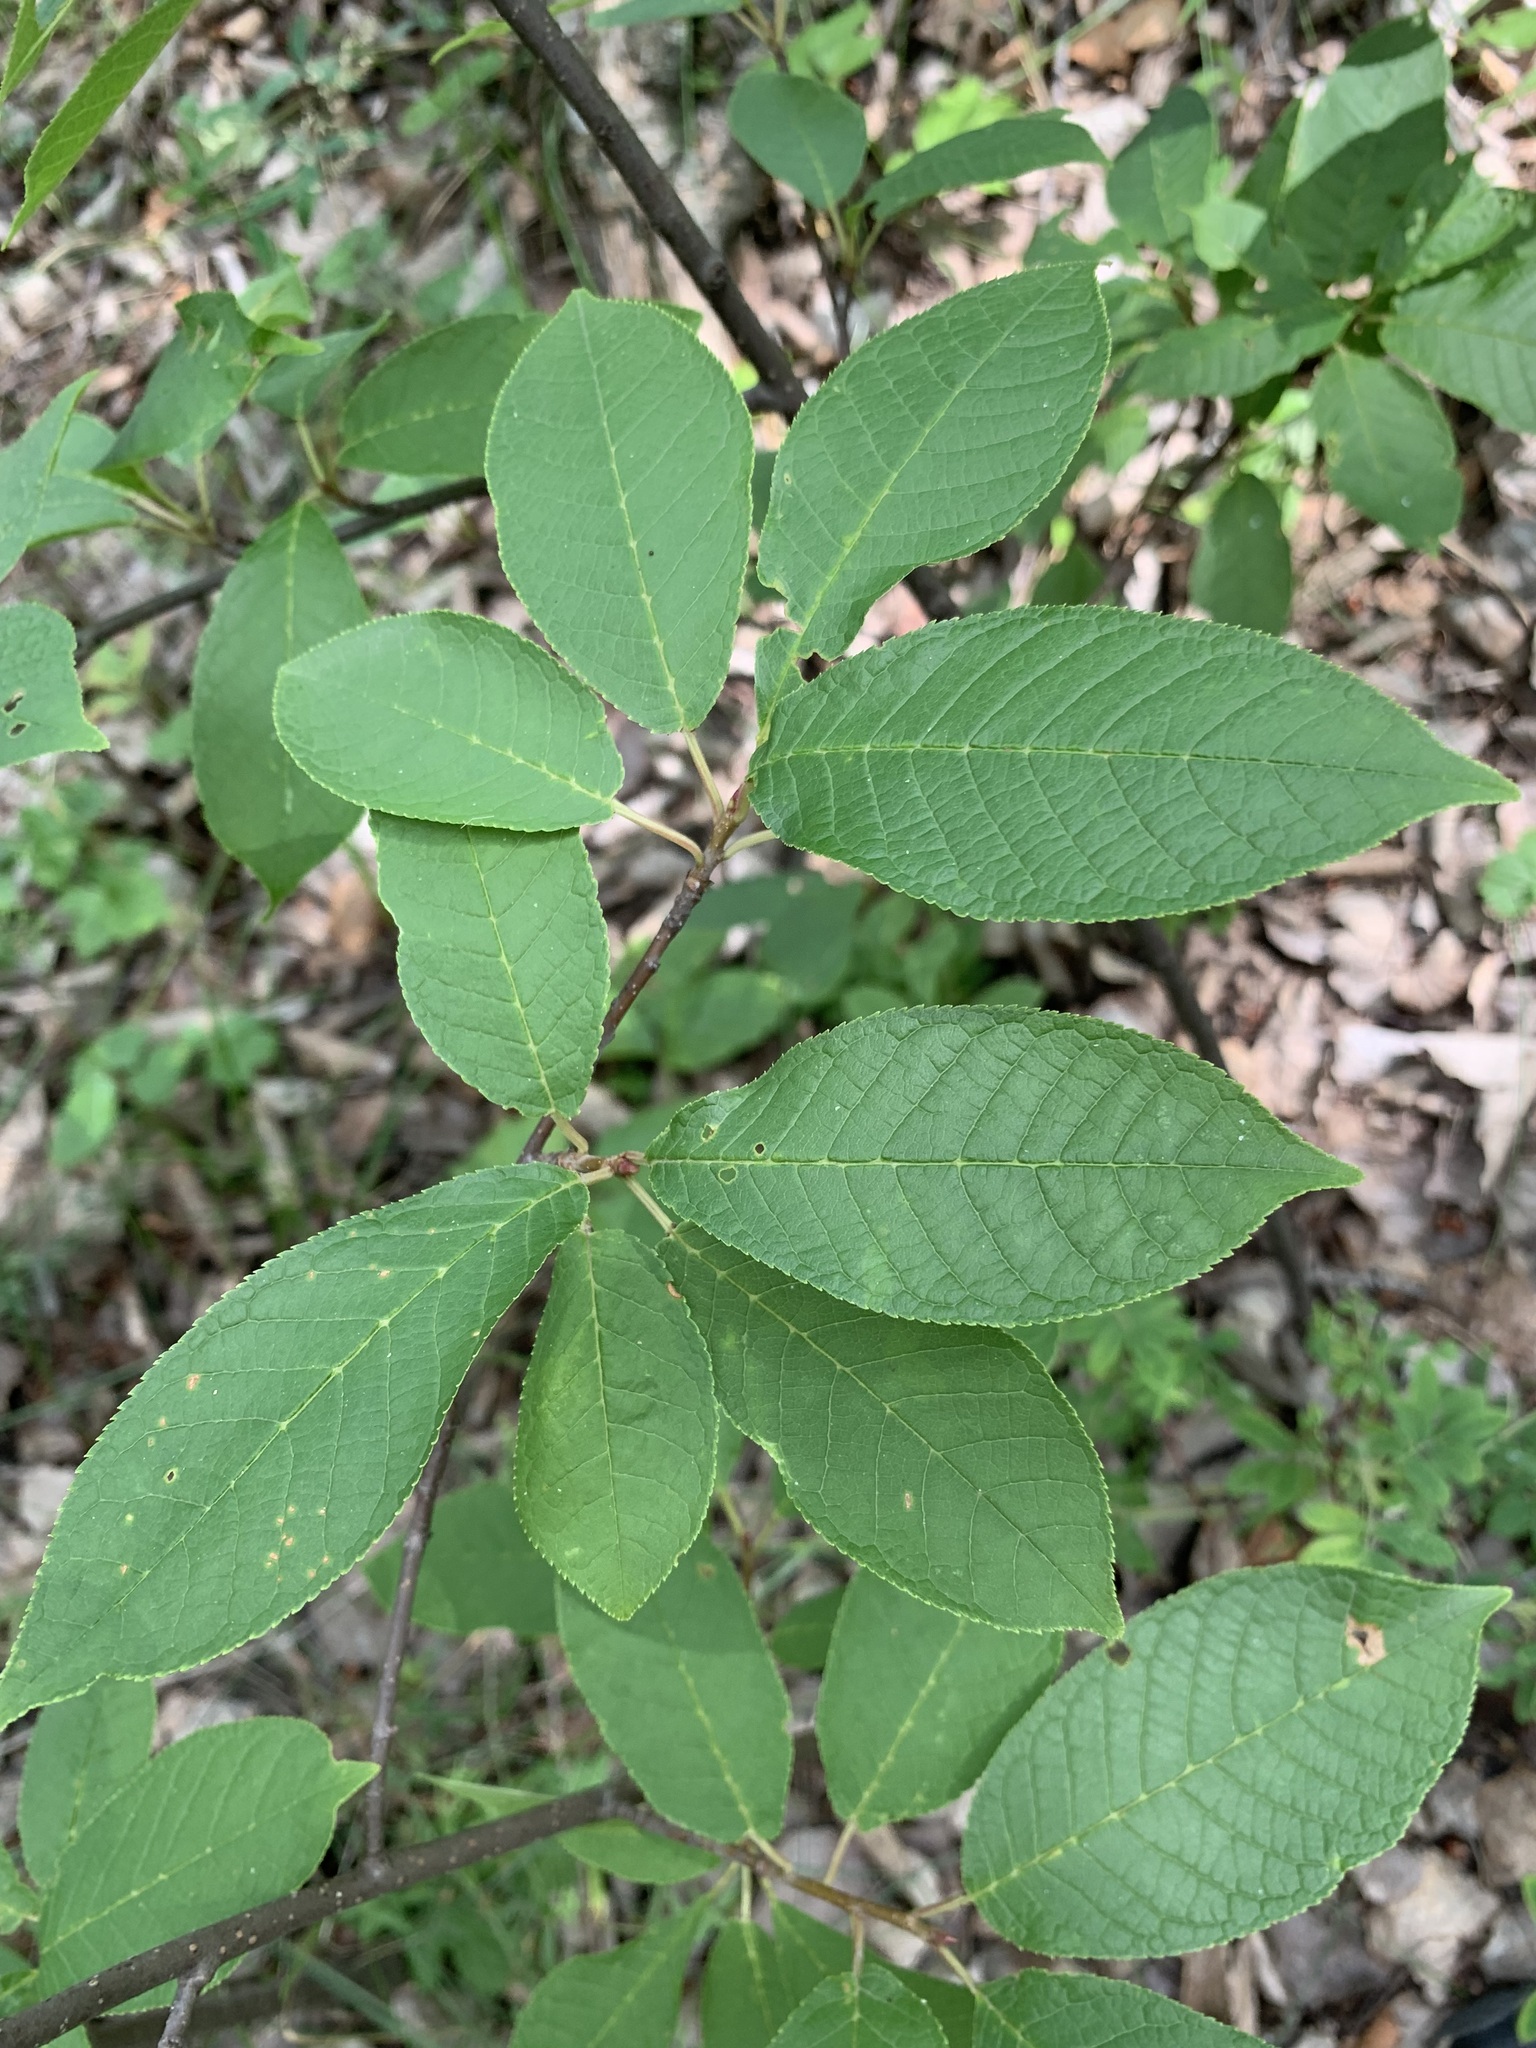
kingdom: Plantae
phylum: Tracheophyta
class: Magnoliopsida
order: Rosales
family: Rosaceae
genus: Prunus
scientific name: Prunus padus
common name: Bird cherry
